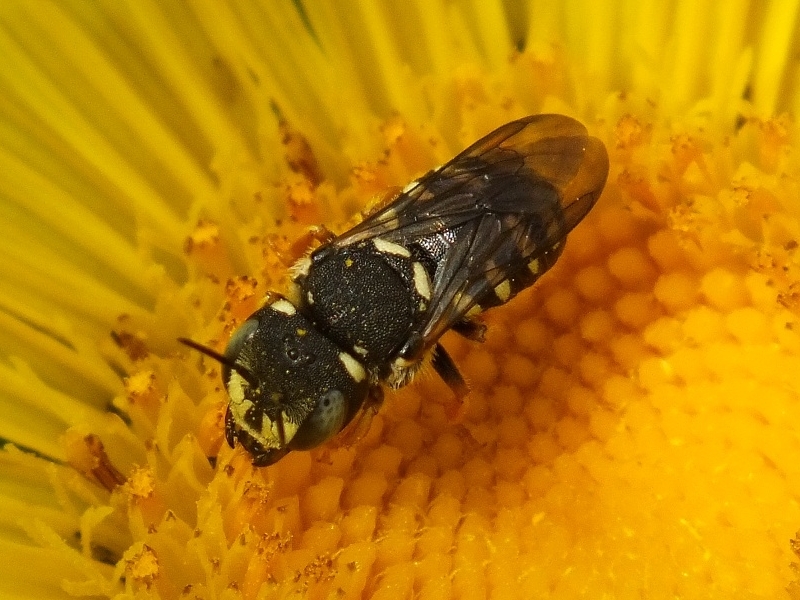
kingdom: Animalia
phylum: Arthropoda
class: Insecta
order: Hymenoptera
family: Megachilidae
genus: Pseudoanthidium
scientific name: Pseudoanthidium nanum
